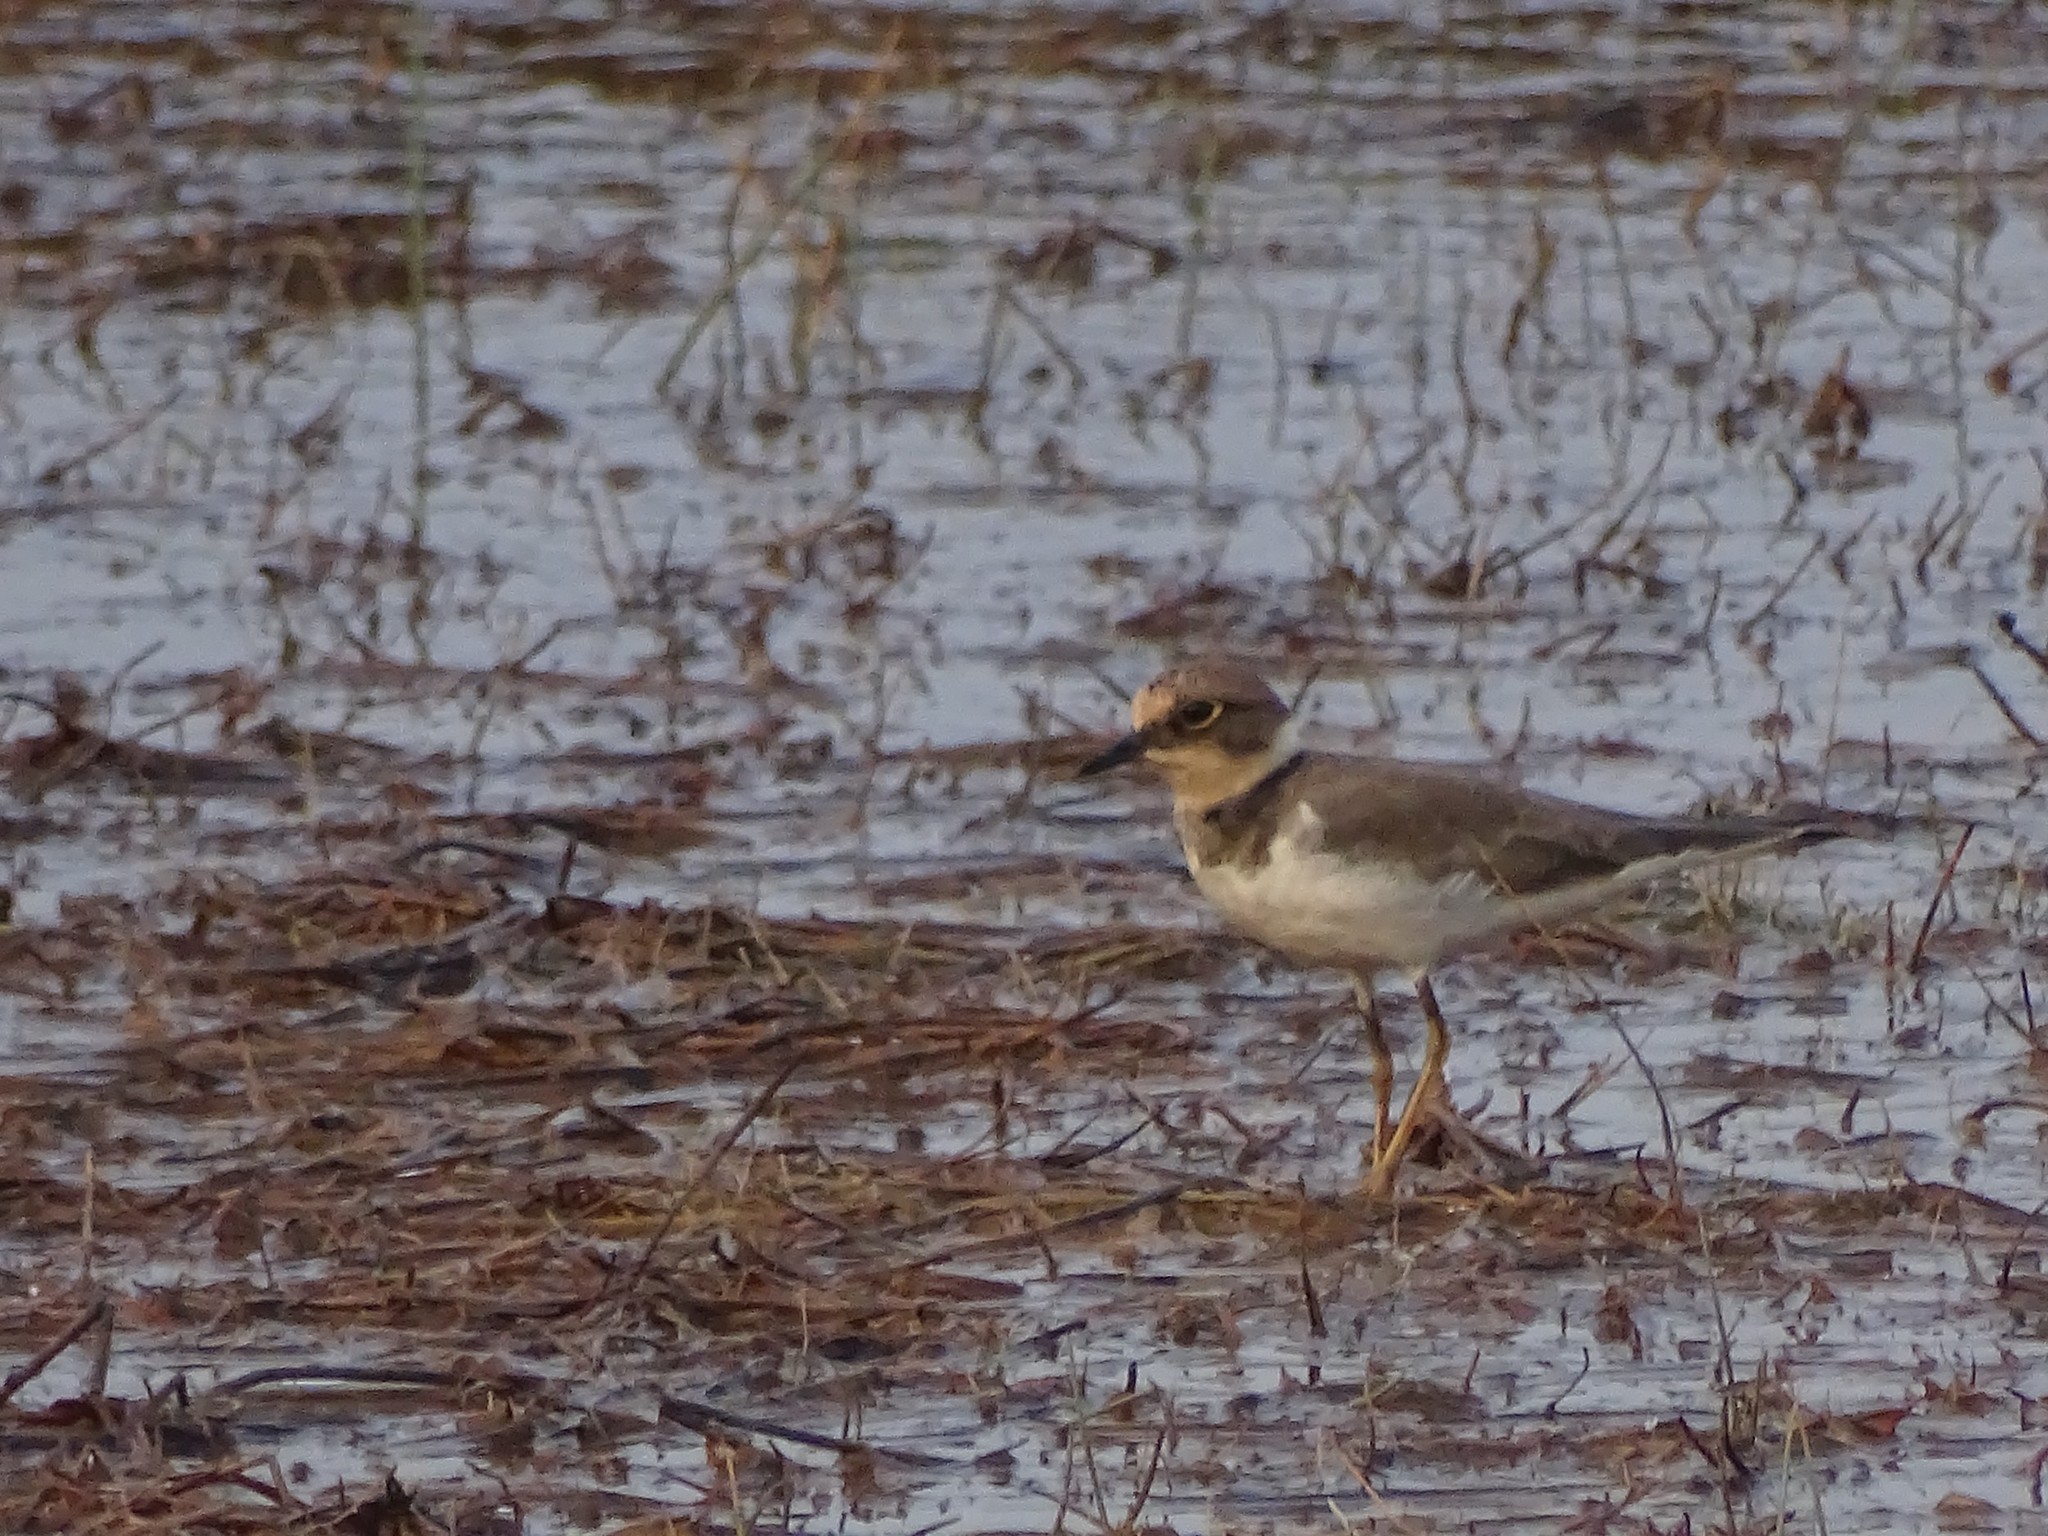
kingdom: Animalia
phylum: Chordata
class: Aves
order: Charadriiformes
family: Charadriidae
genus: Charadrius
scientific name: Charadrius dubius
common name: Little ringed plover
